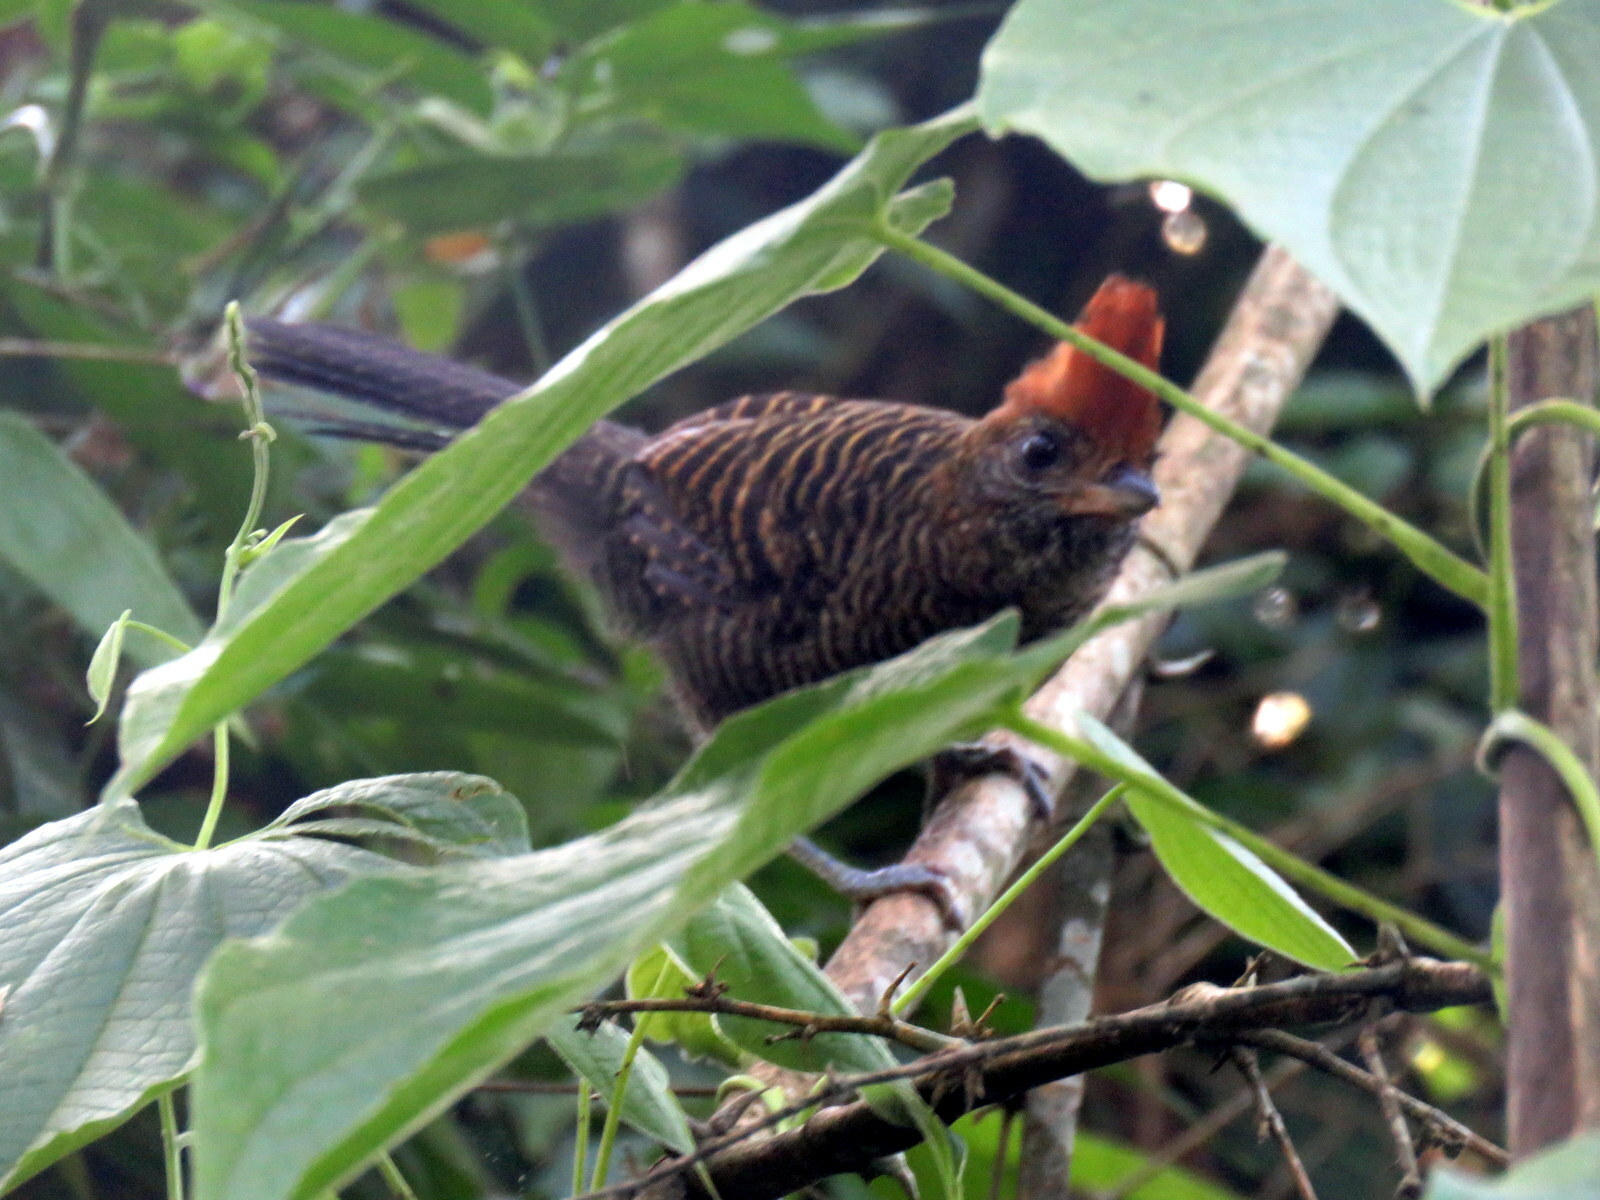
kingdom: Animalia
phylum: Chordata
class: Aves
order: Passeriformes
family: Thamnophilidae
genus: Mackenziaena
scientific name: Mackenziaena severa
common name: Tufted antshrike
